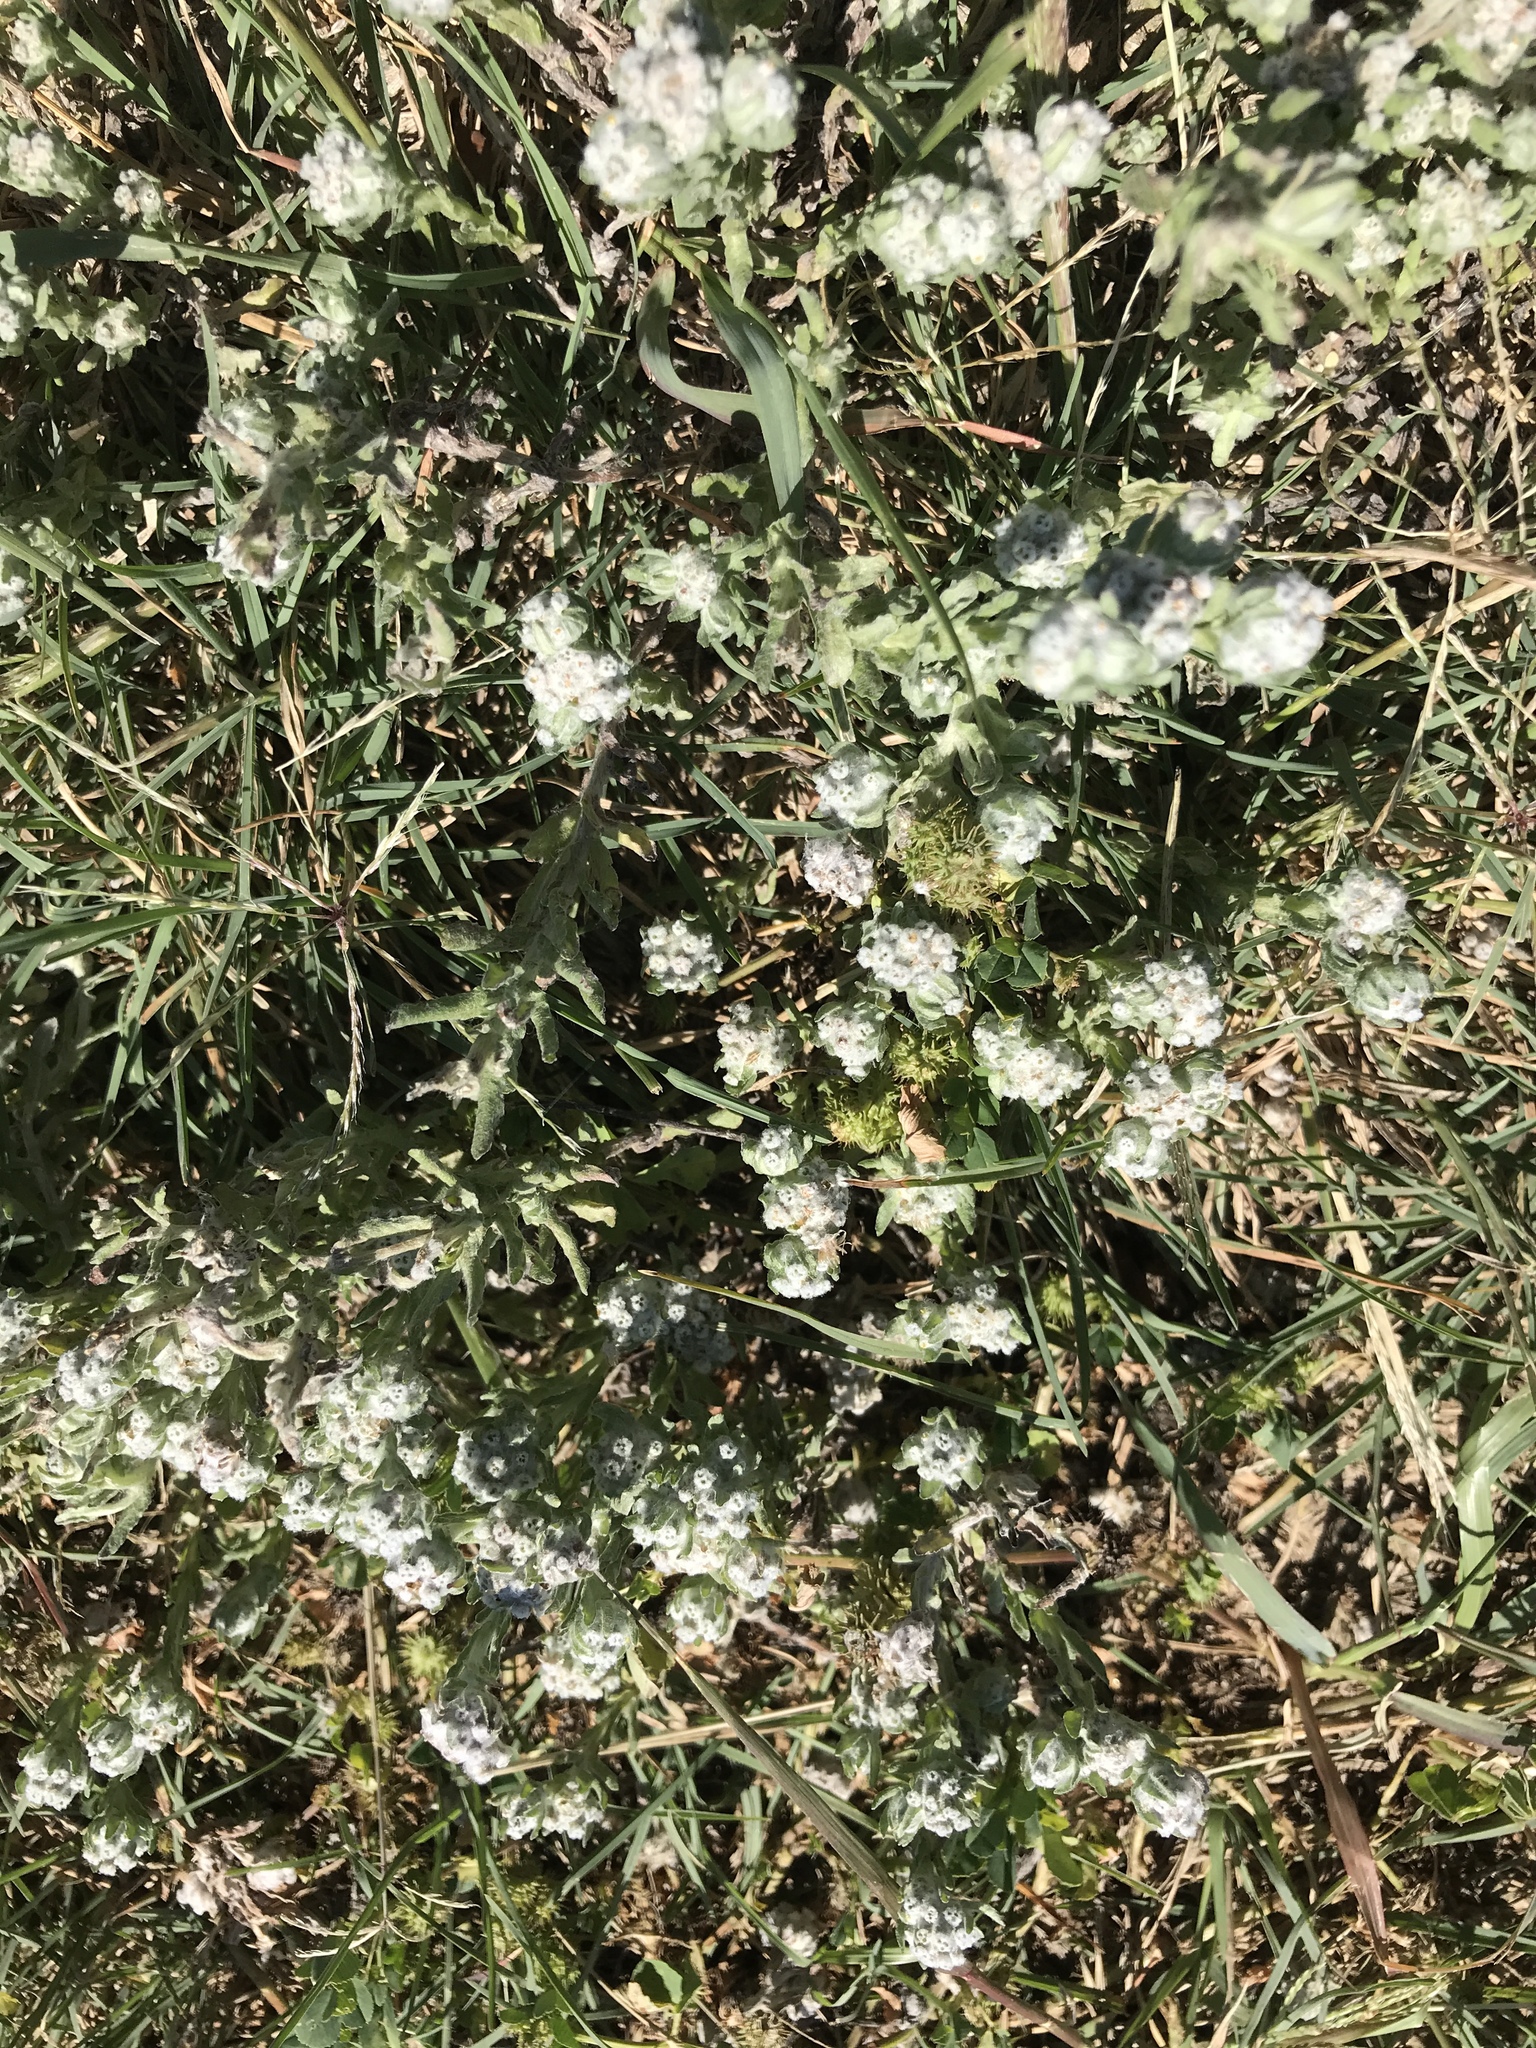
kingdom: Plantae
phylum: Tracheophyta
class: Magnoliopsida
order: Asterales
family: Asteraceae
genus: Diaperia
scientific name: Diaperia verna
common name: Many-stem rabbit-tobacco
